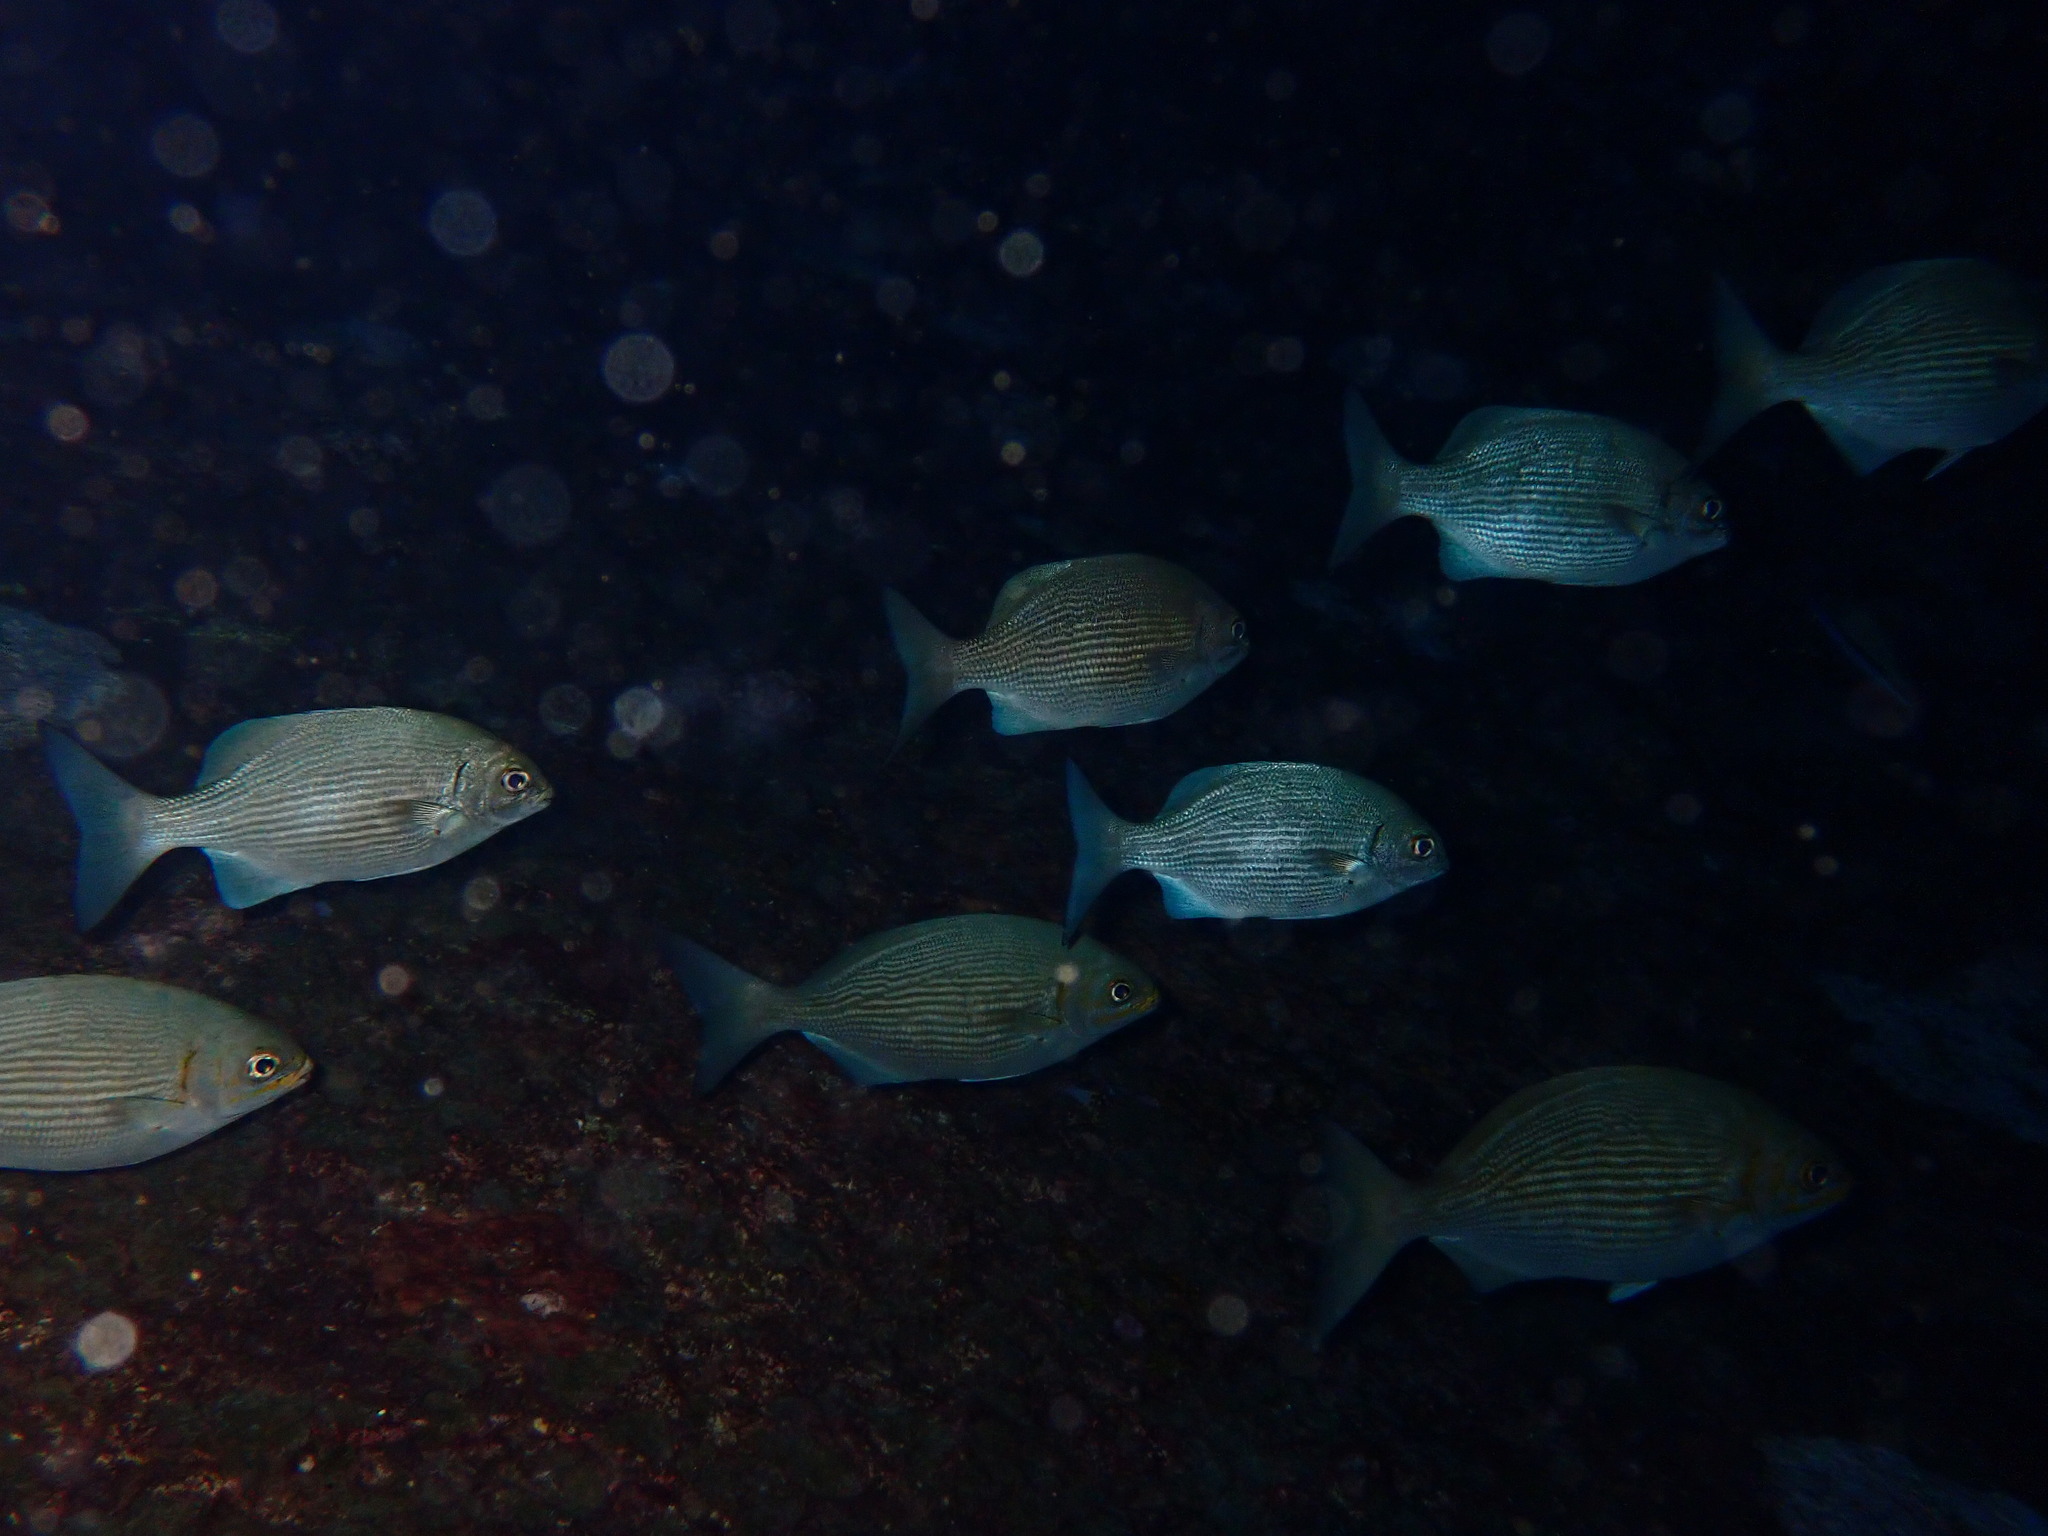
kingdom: Animalia
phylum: Chordata
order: Perciformes
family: Kyphosidae
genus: Kyphosus
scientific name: Kyphosus cinerascens
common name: Topsail drummer
